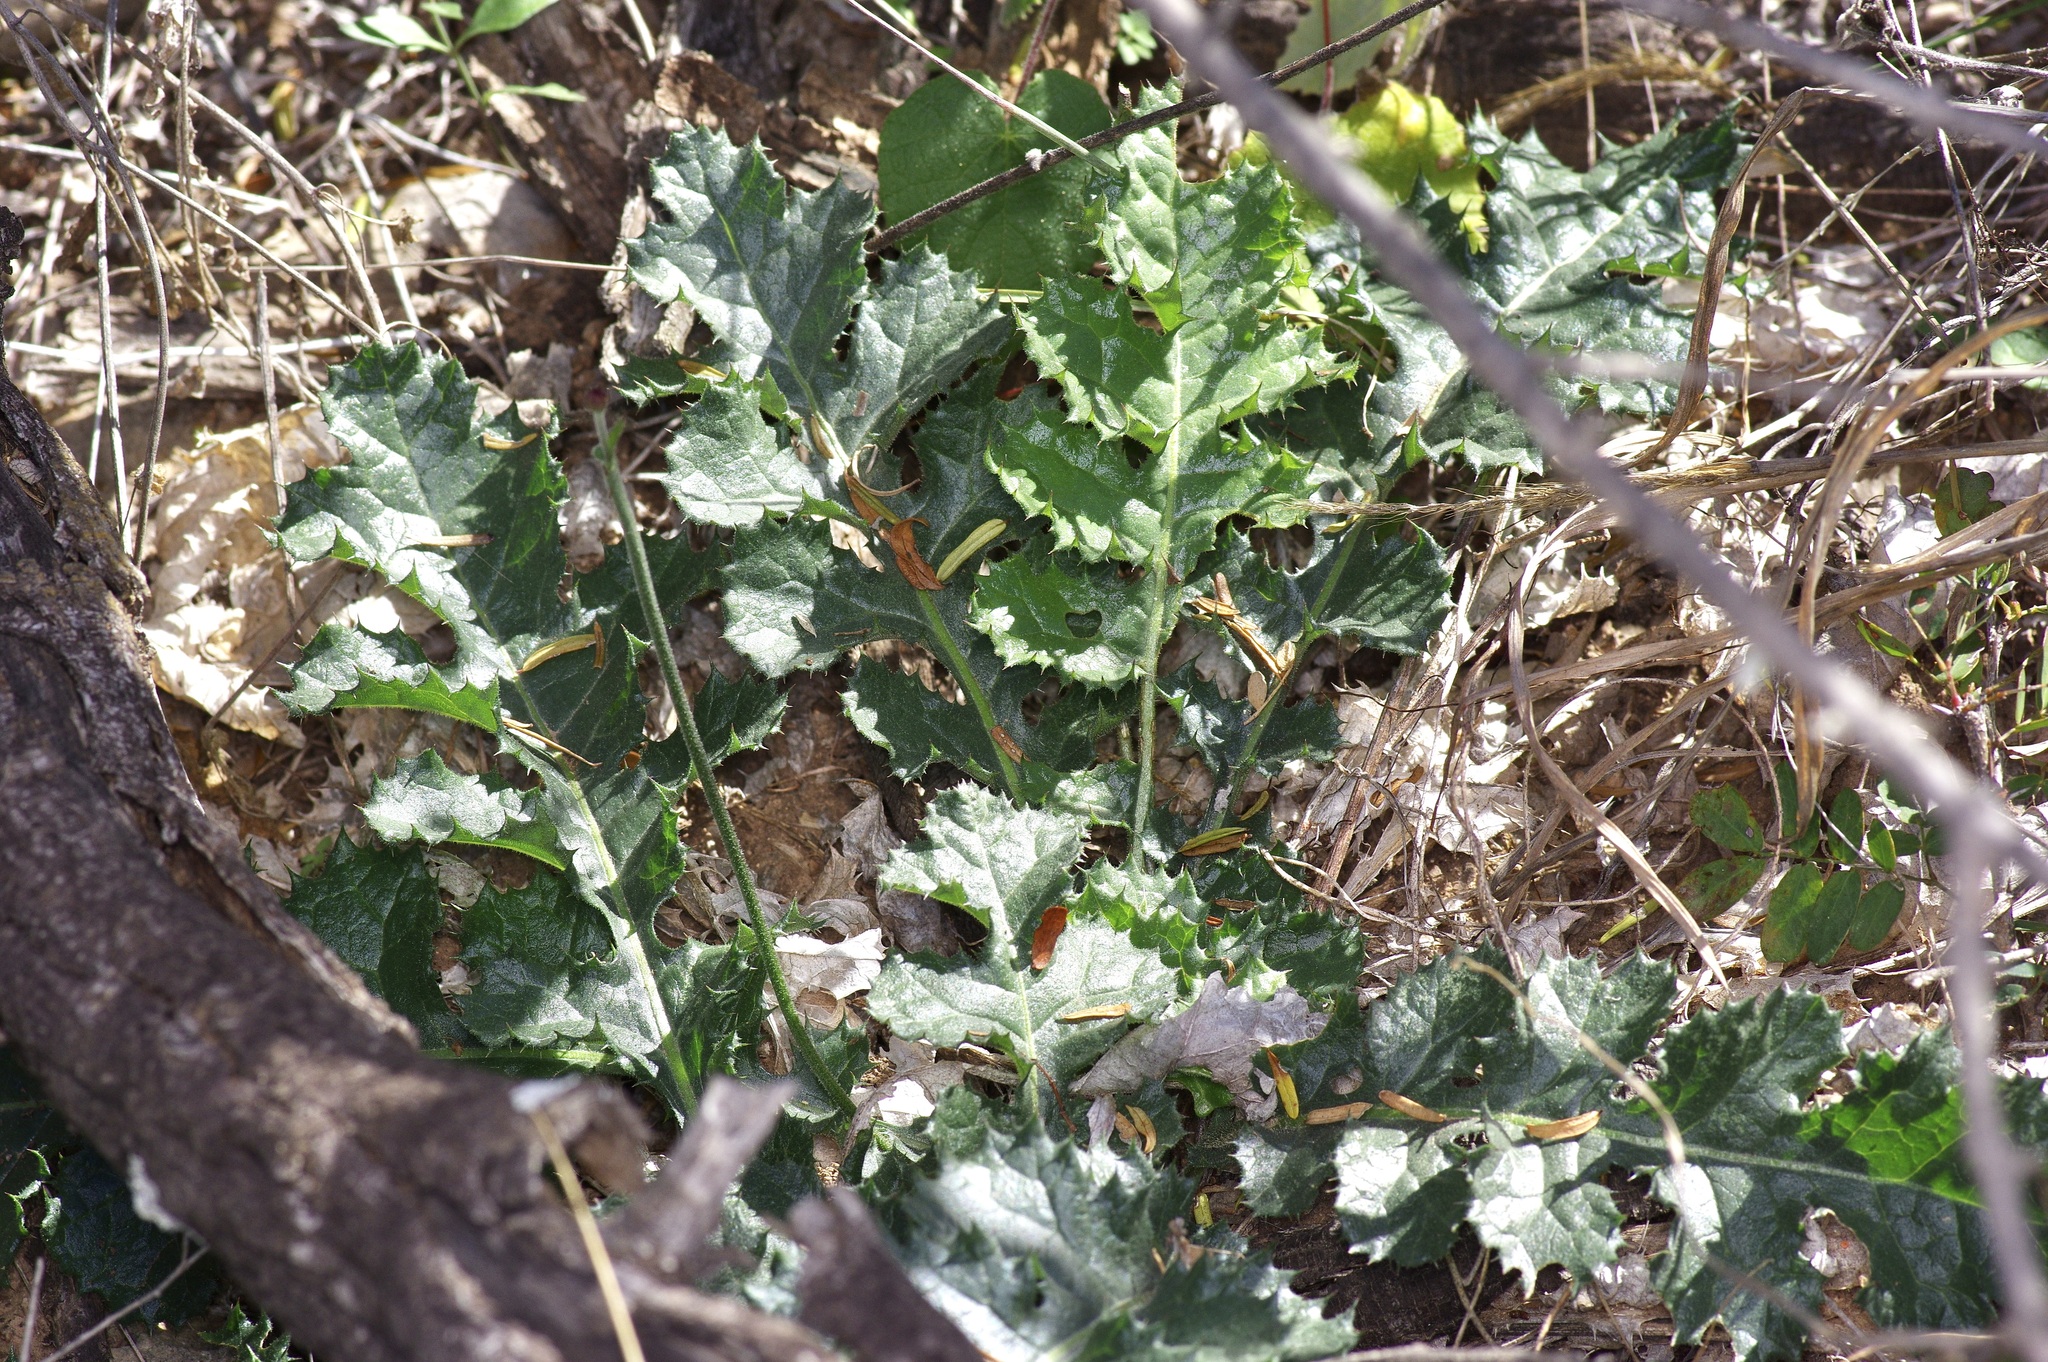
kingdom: Plantae
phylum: Tracheophyta
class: Magnoliopsida
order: Asterales
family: Asteraceae
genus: Acourtia
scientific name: Acourtia runcinata
